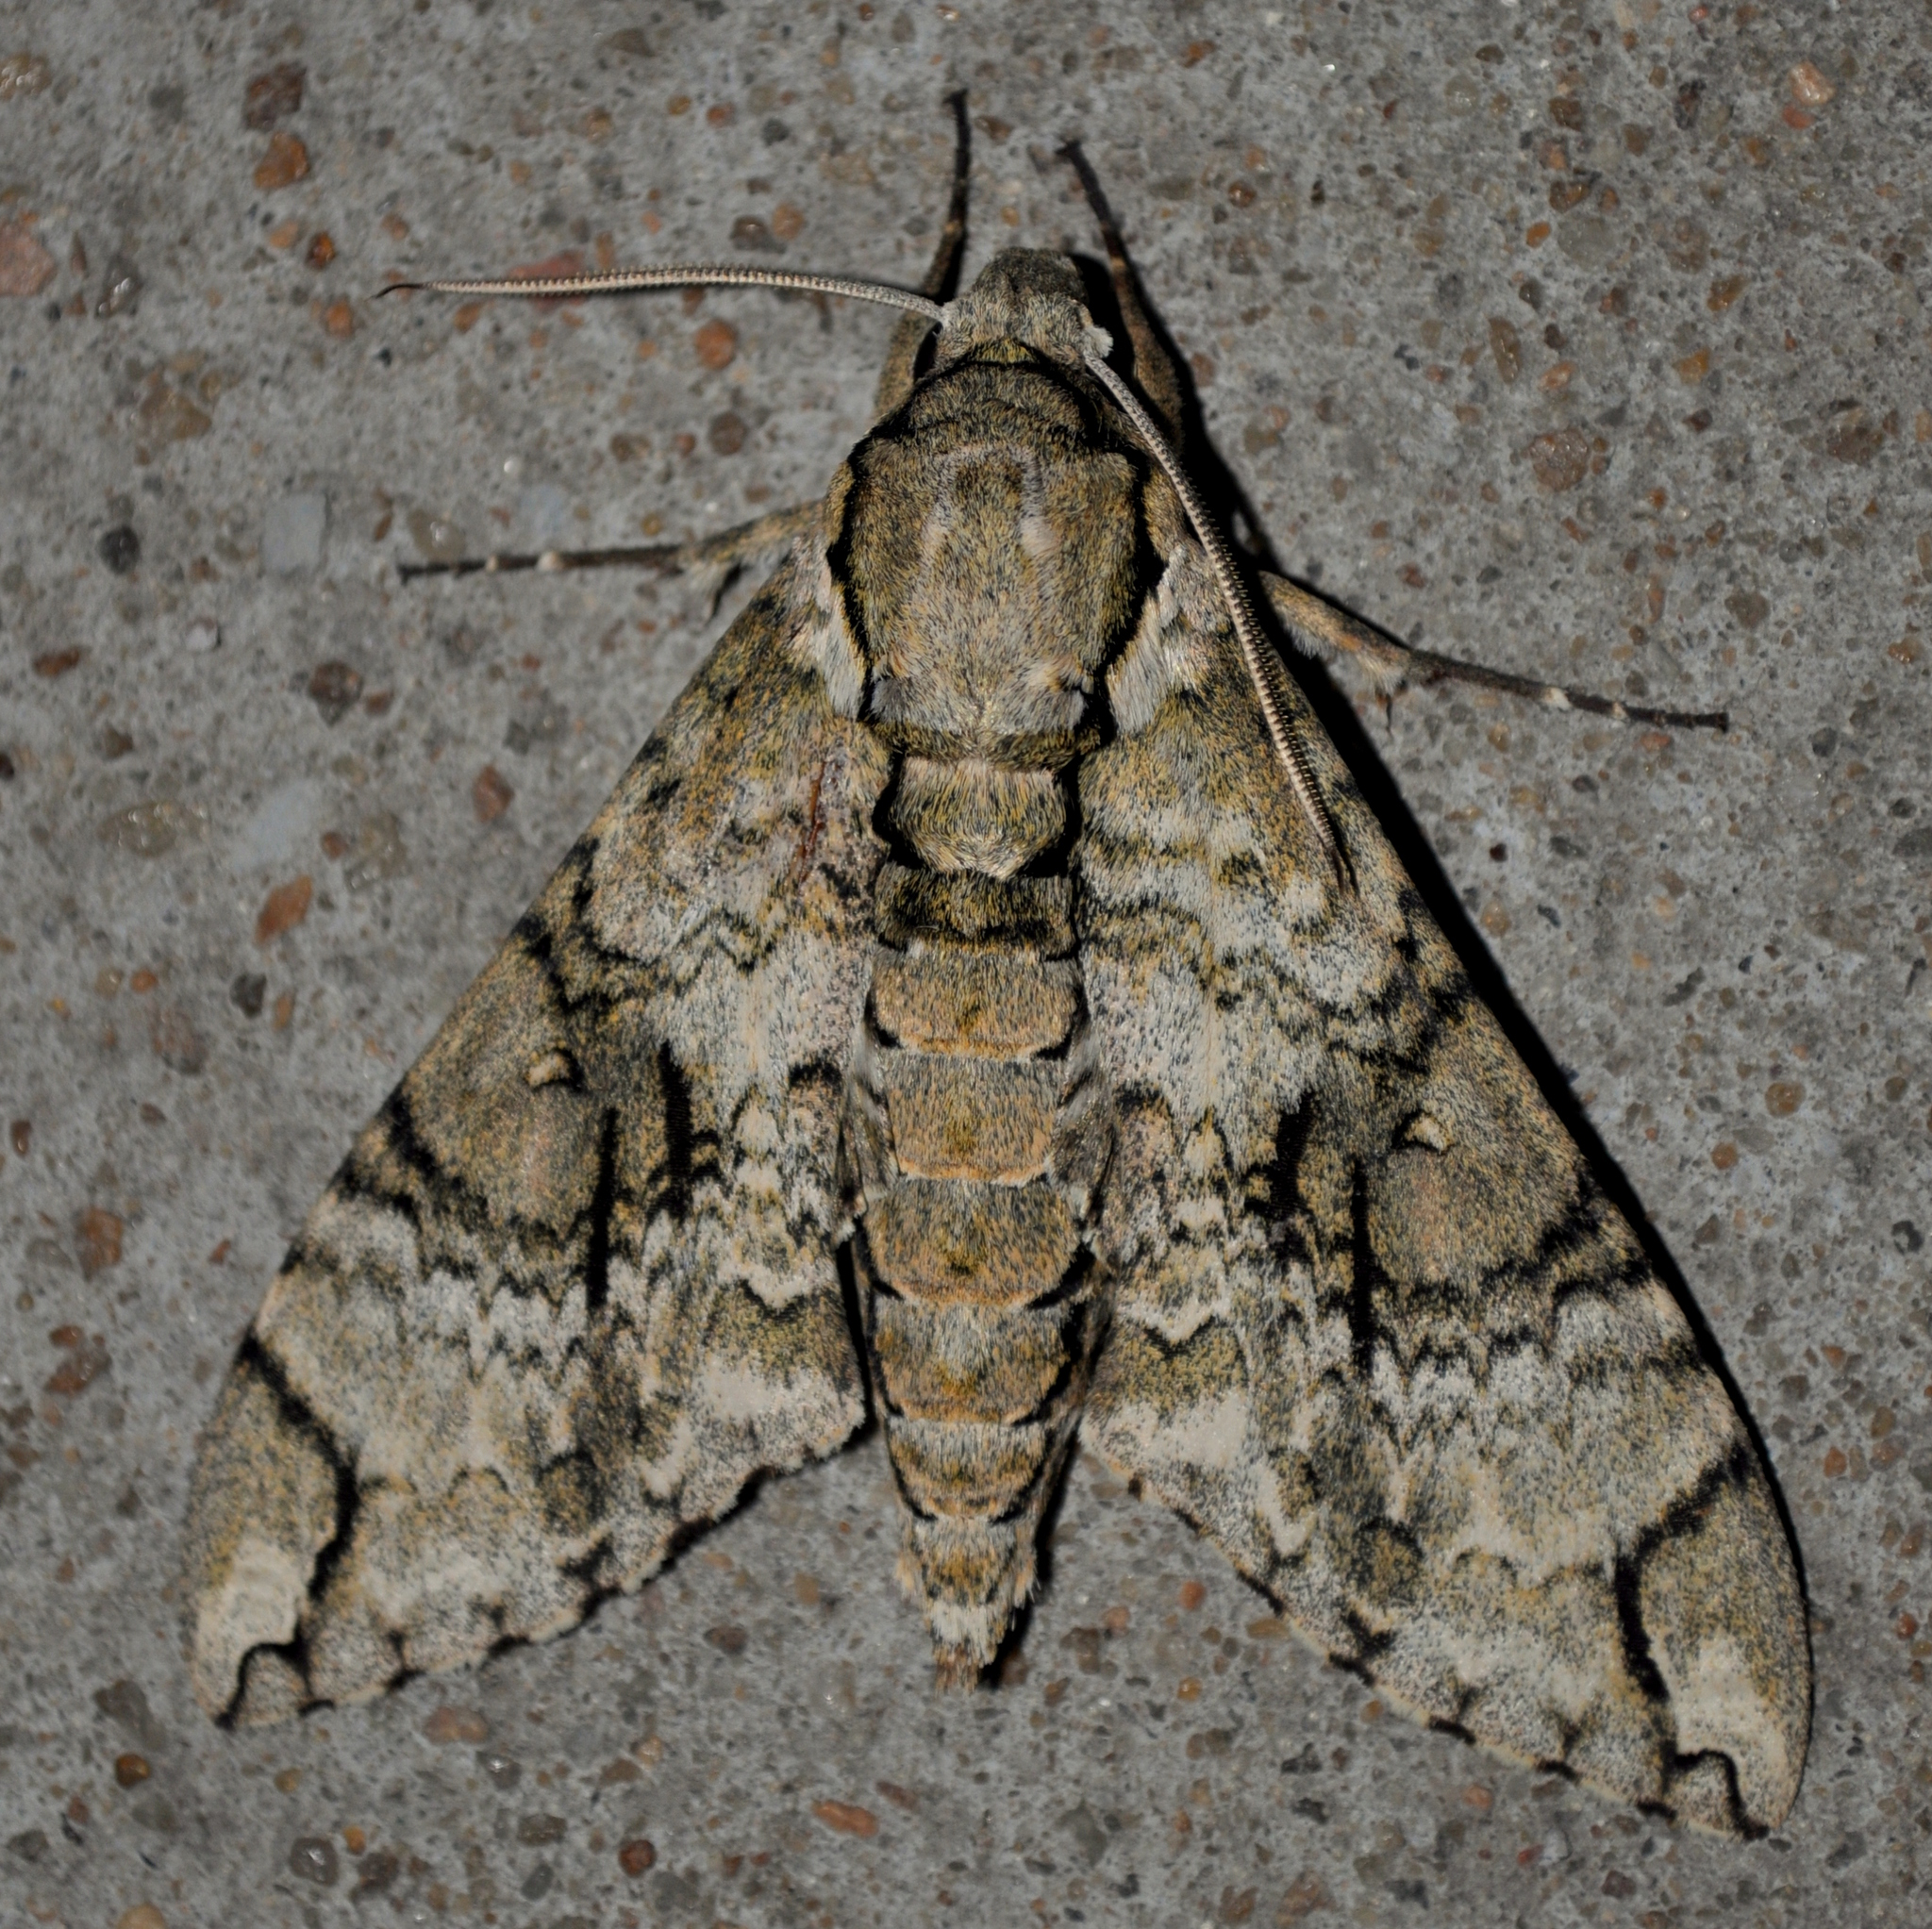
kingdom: Animalia
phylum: Arthropoda
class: Insecta
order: Lepidoptera
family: Sphingidae
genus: Manduca
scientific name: Manduca florestan
